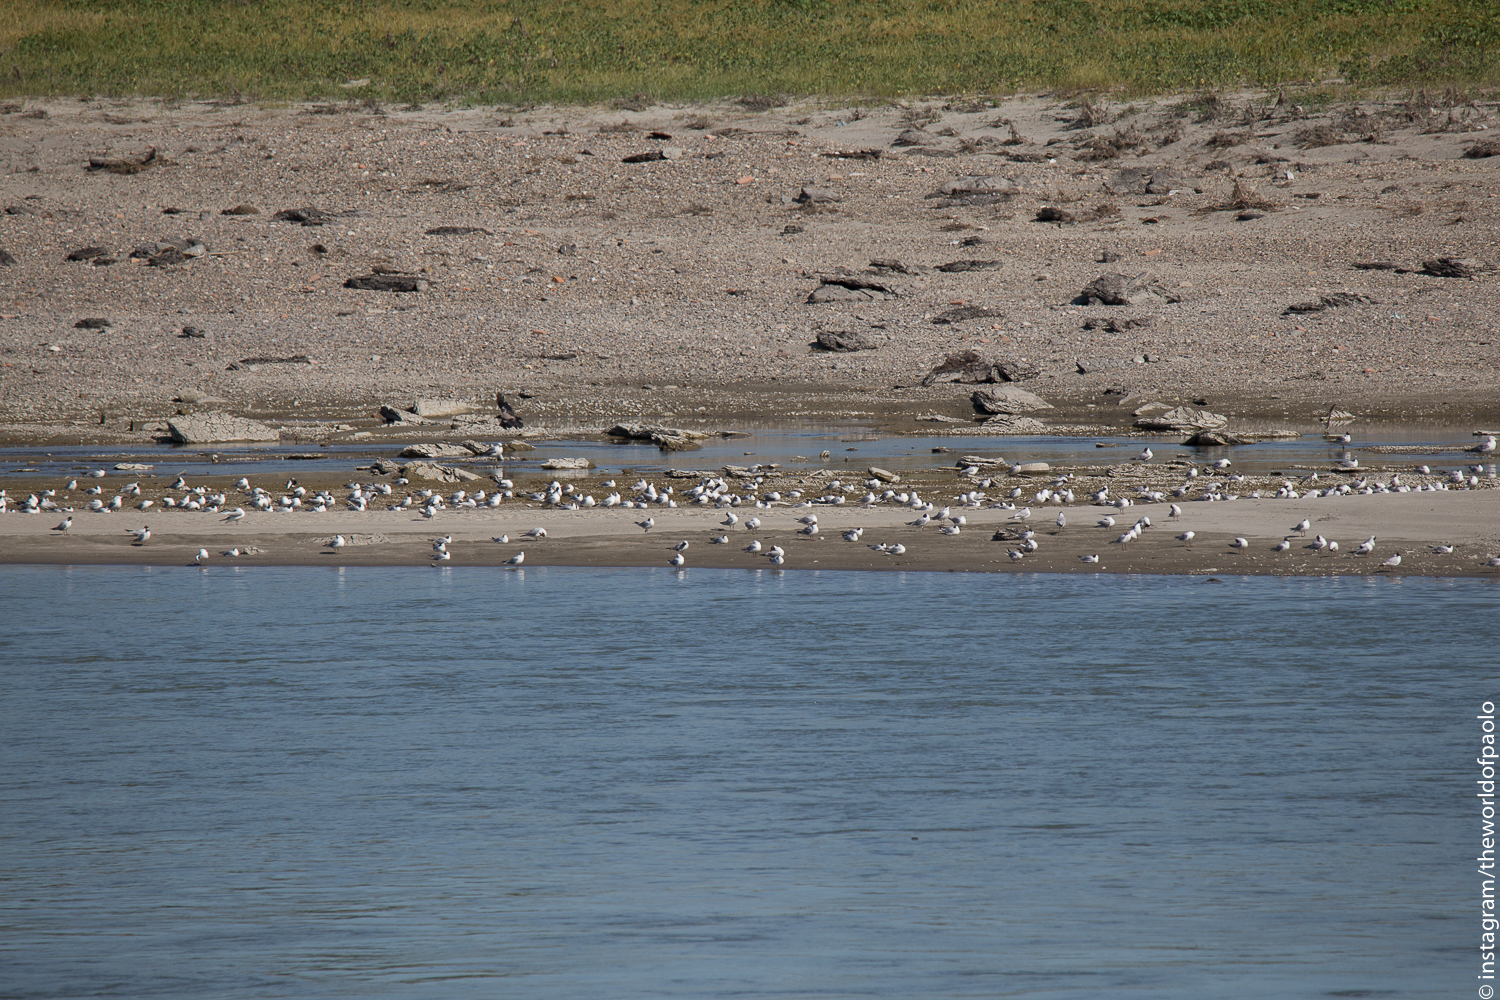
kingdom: Animalia
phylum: Chordata
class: Aves
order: Charadriiformes
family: Laridae
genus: Chroicocephalus
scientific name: Chroicocephalus ridibundus
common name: Black-headed gull
